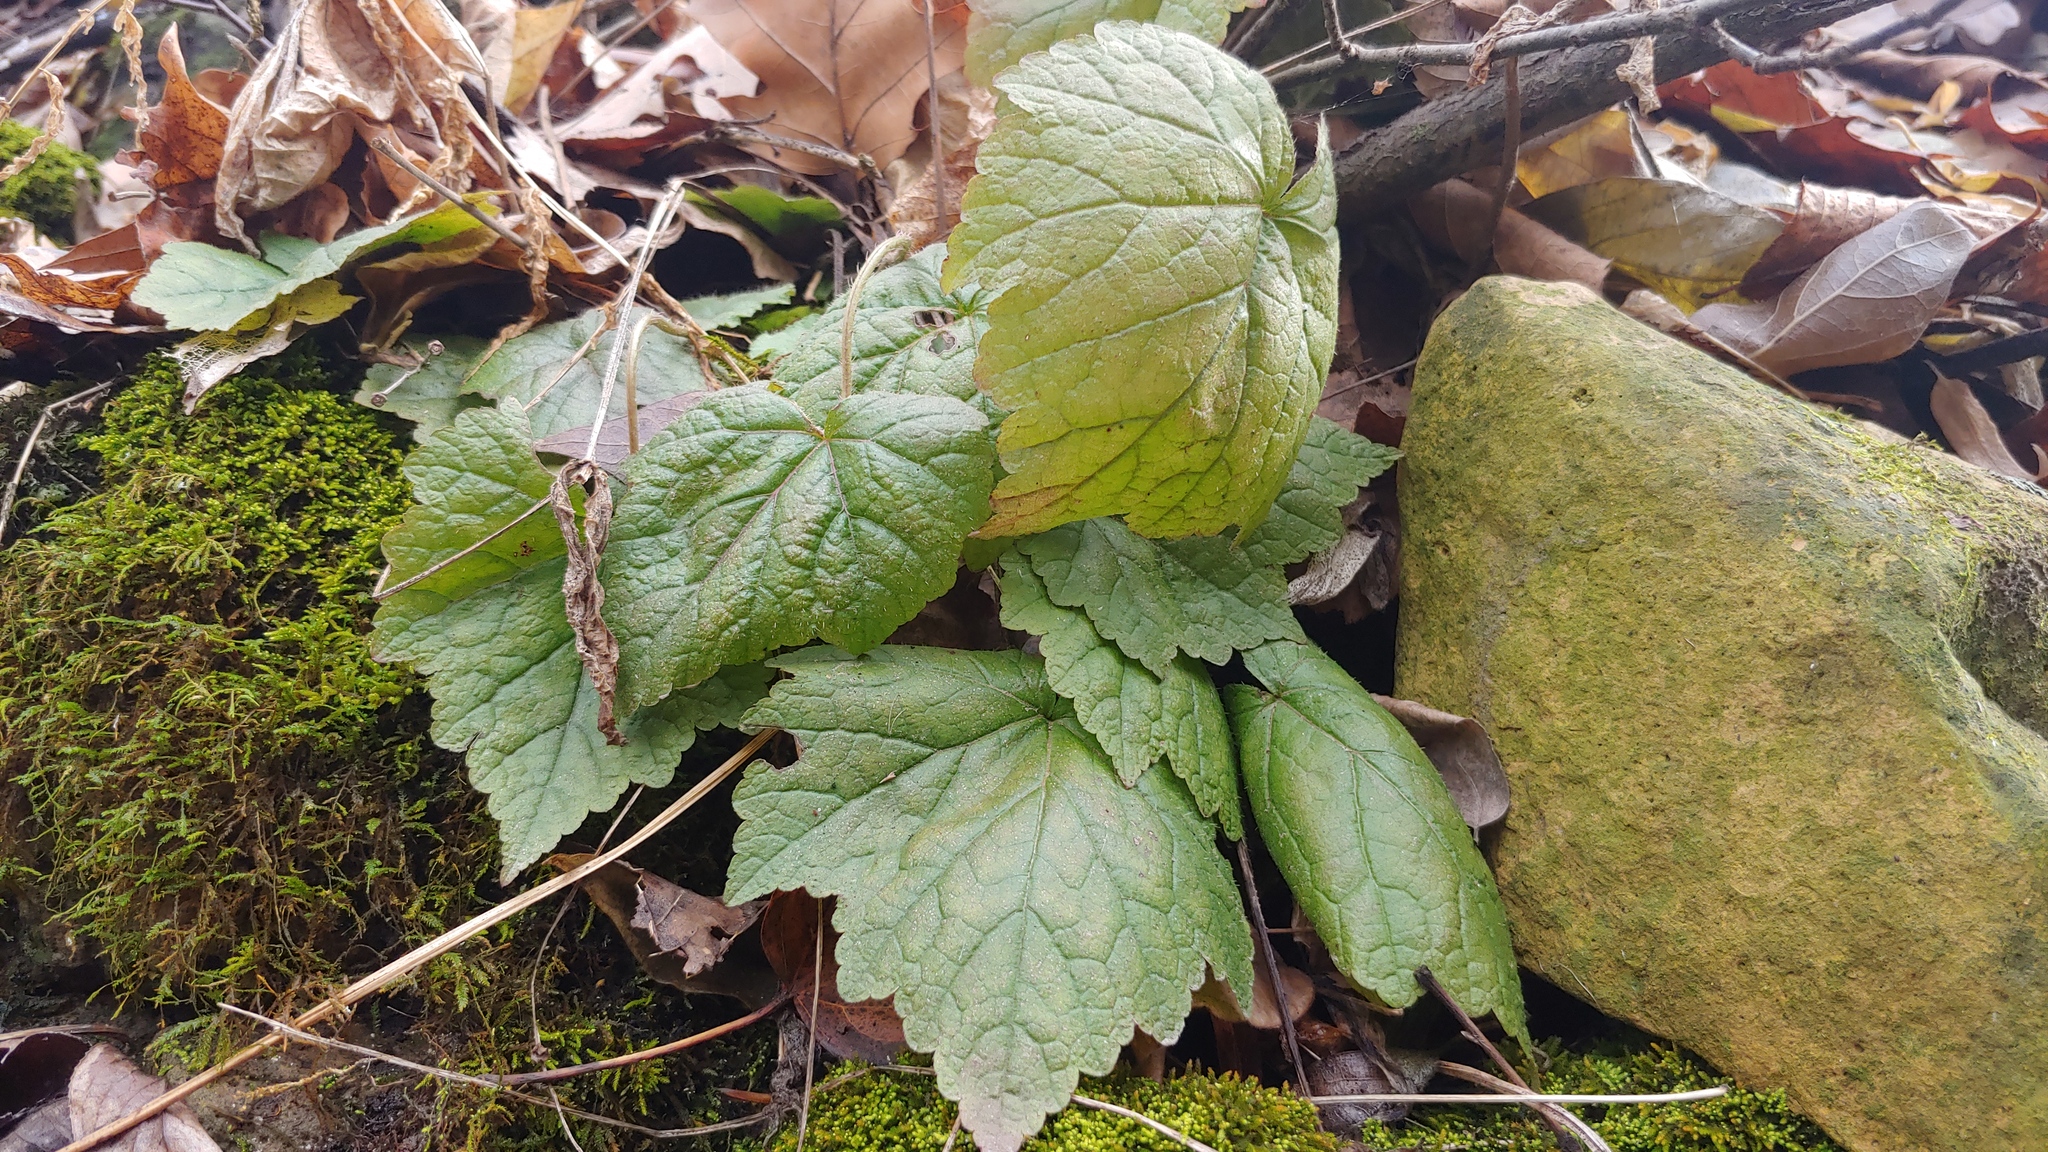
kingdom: Plantae
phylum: Tracheophyta
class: Magnoliopsida
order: Saxifragales
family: Saxifragaceae
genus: Mitella
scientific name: Mitella diphylla
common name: Coolwort
